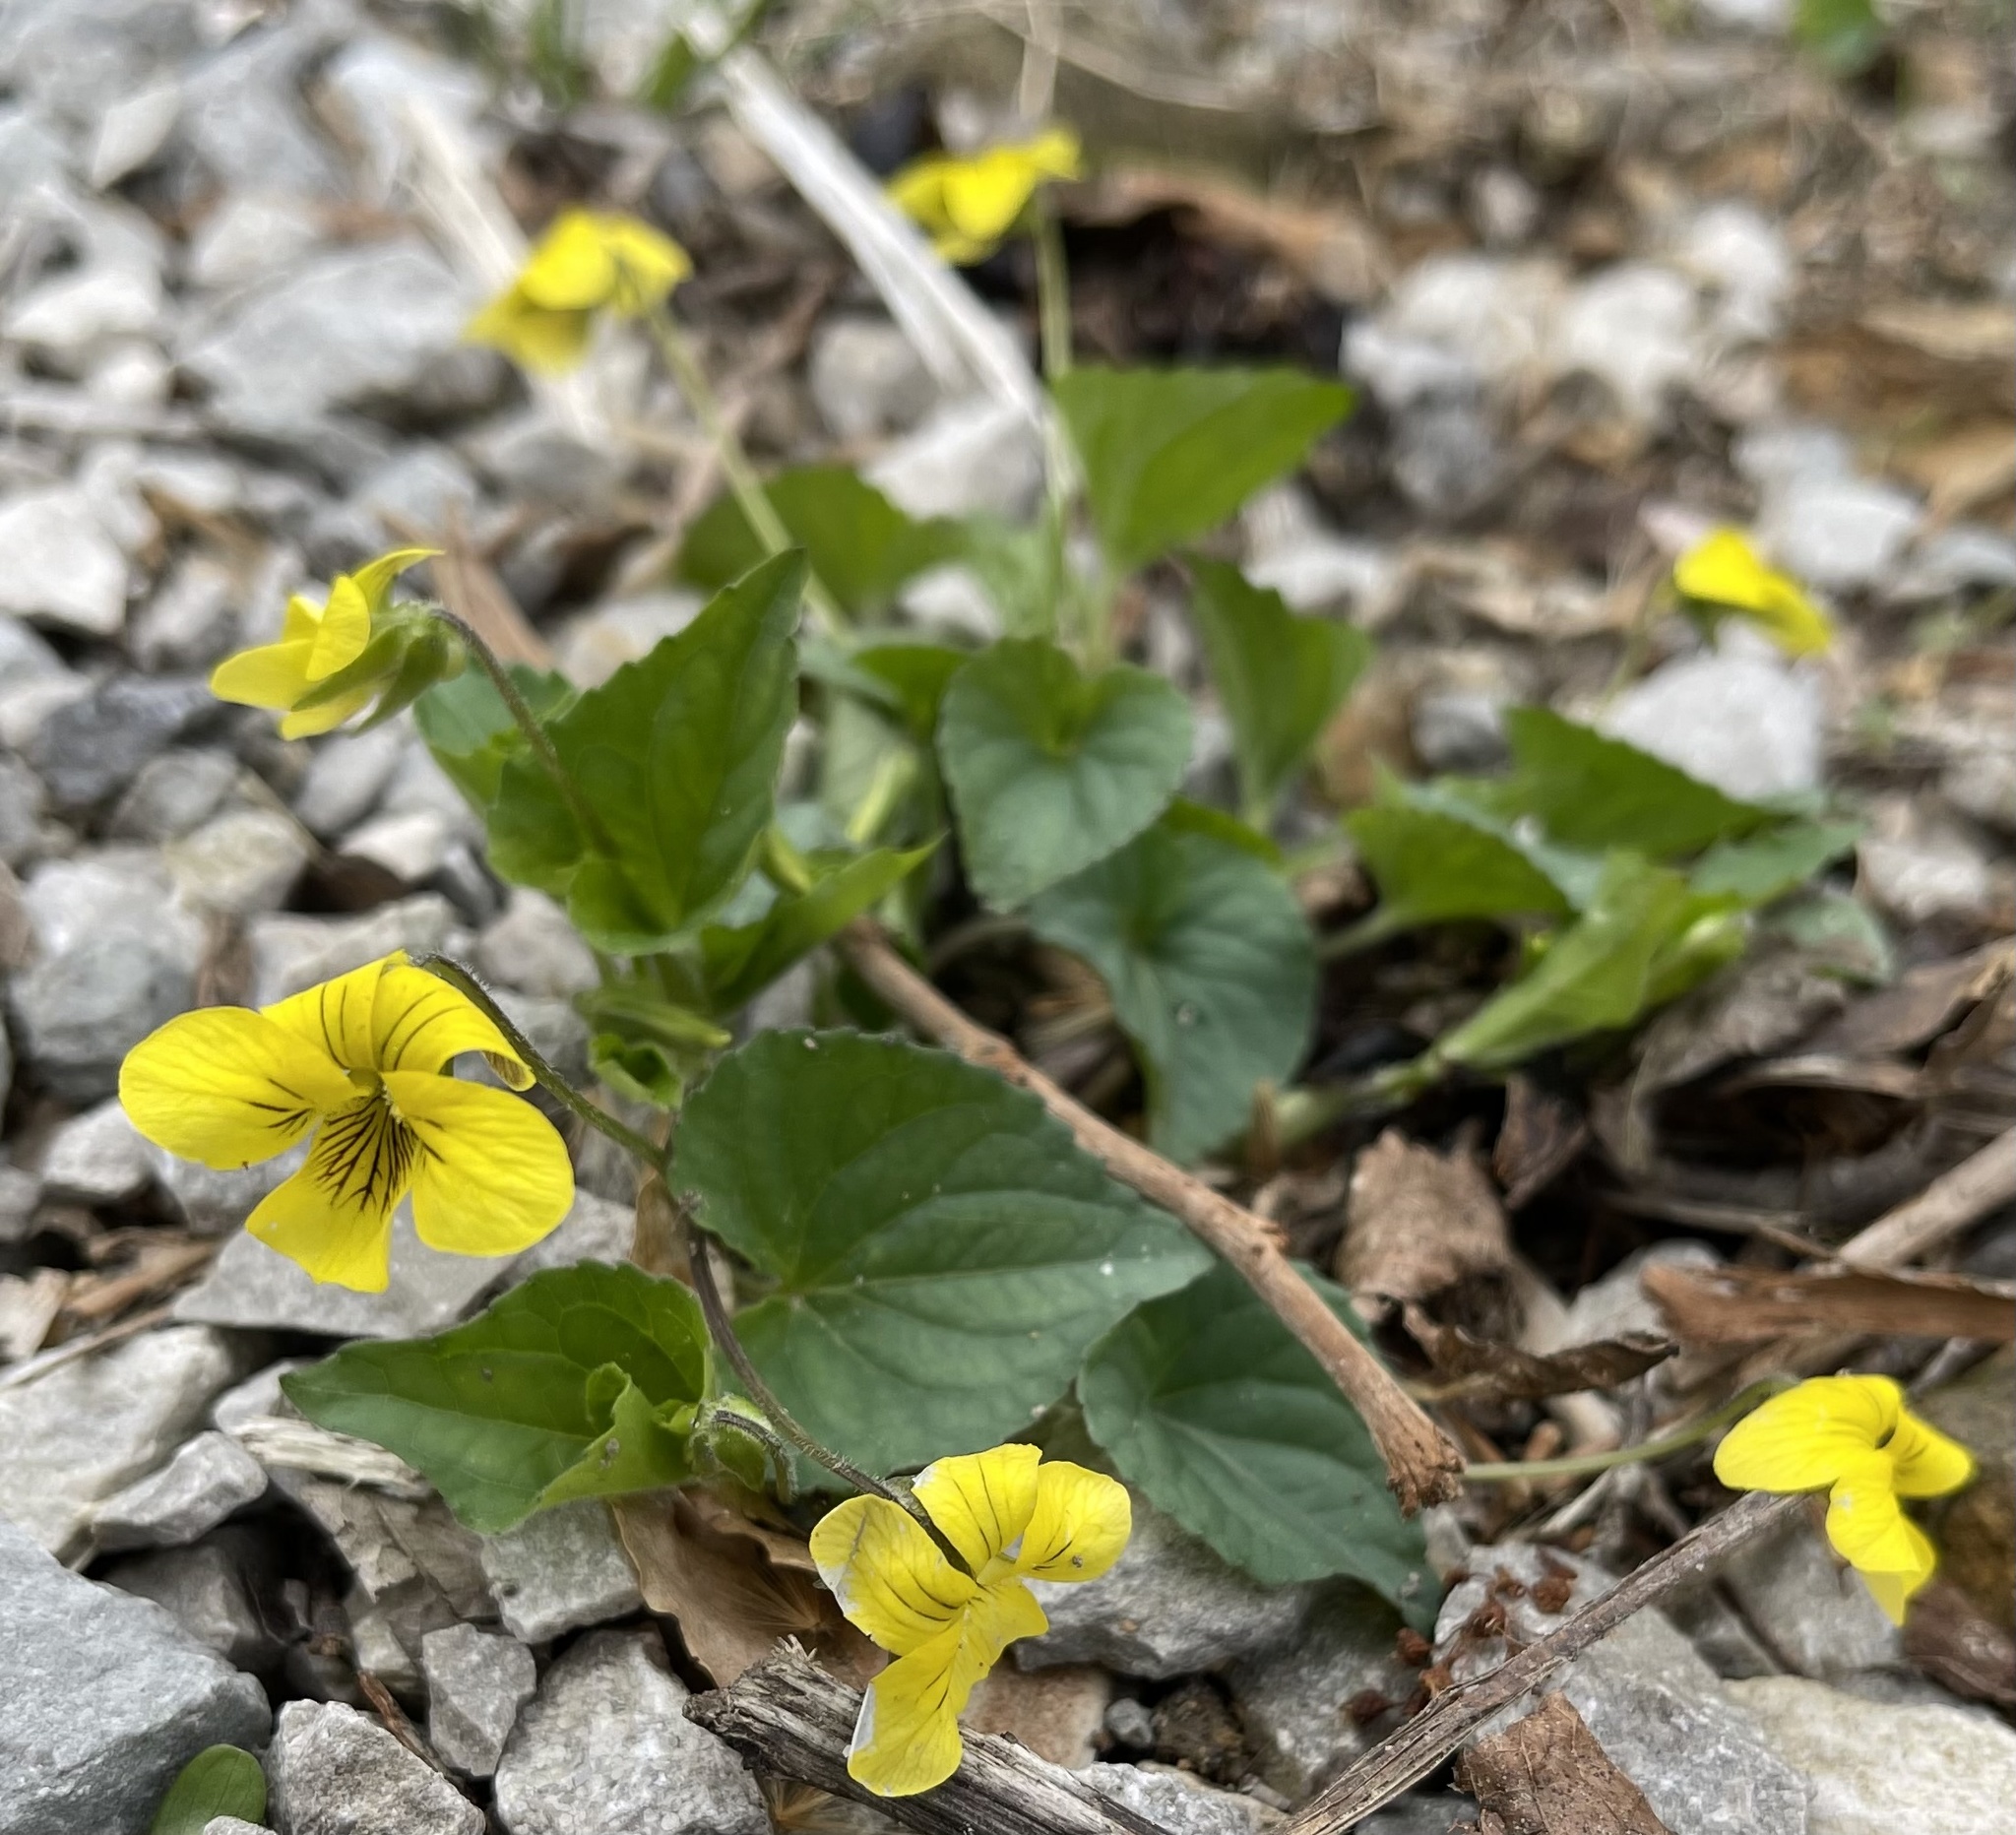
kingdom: Plantae
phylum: Tracheophyta
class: Magnoliopsida
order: Malpighiales
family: Violaceae
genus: Viola
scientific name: Viola eriocarpa
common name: Smooth yellow violet
